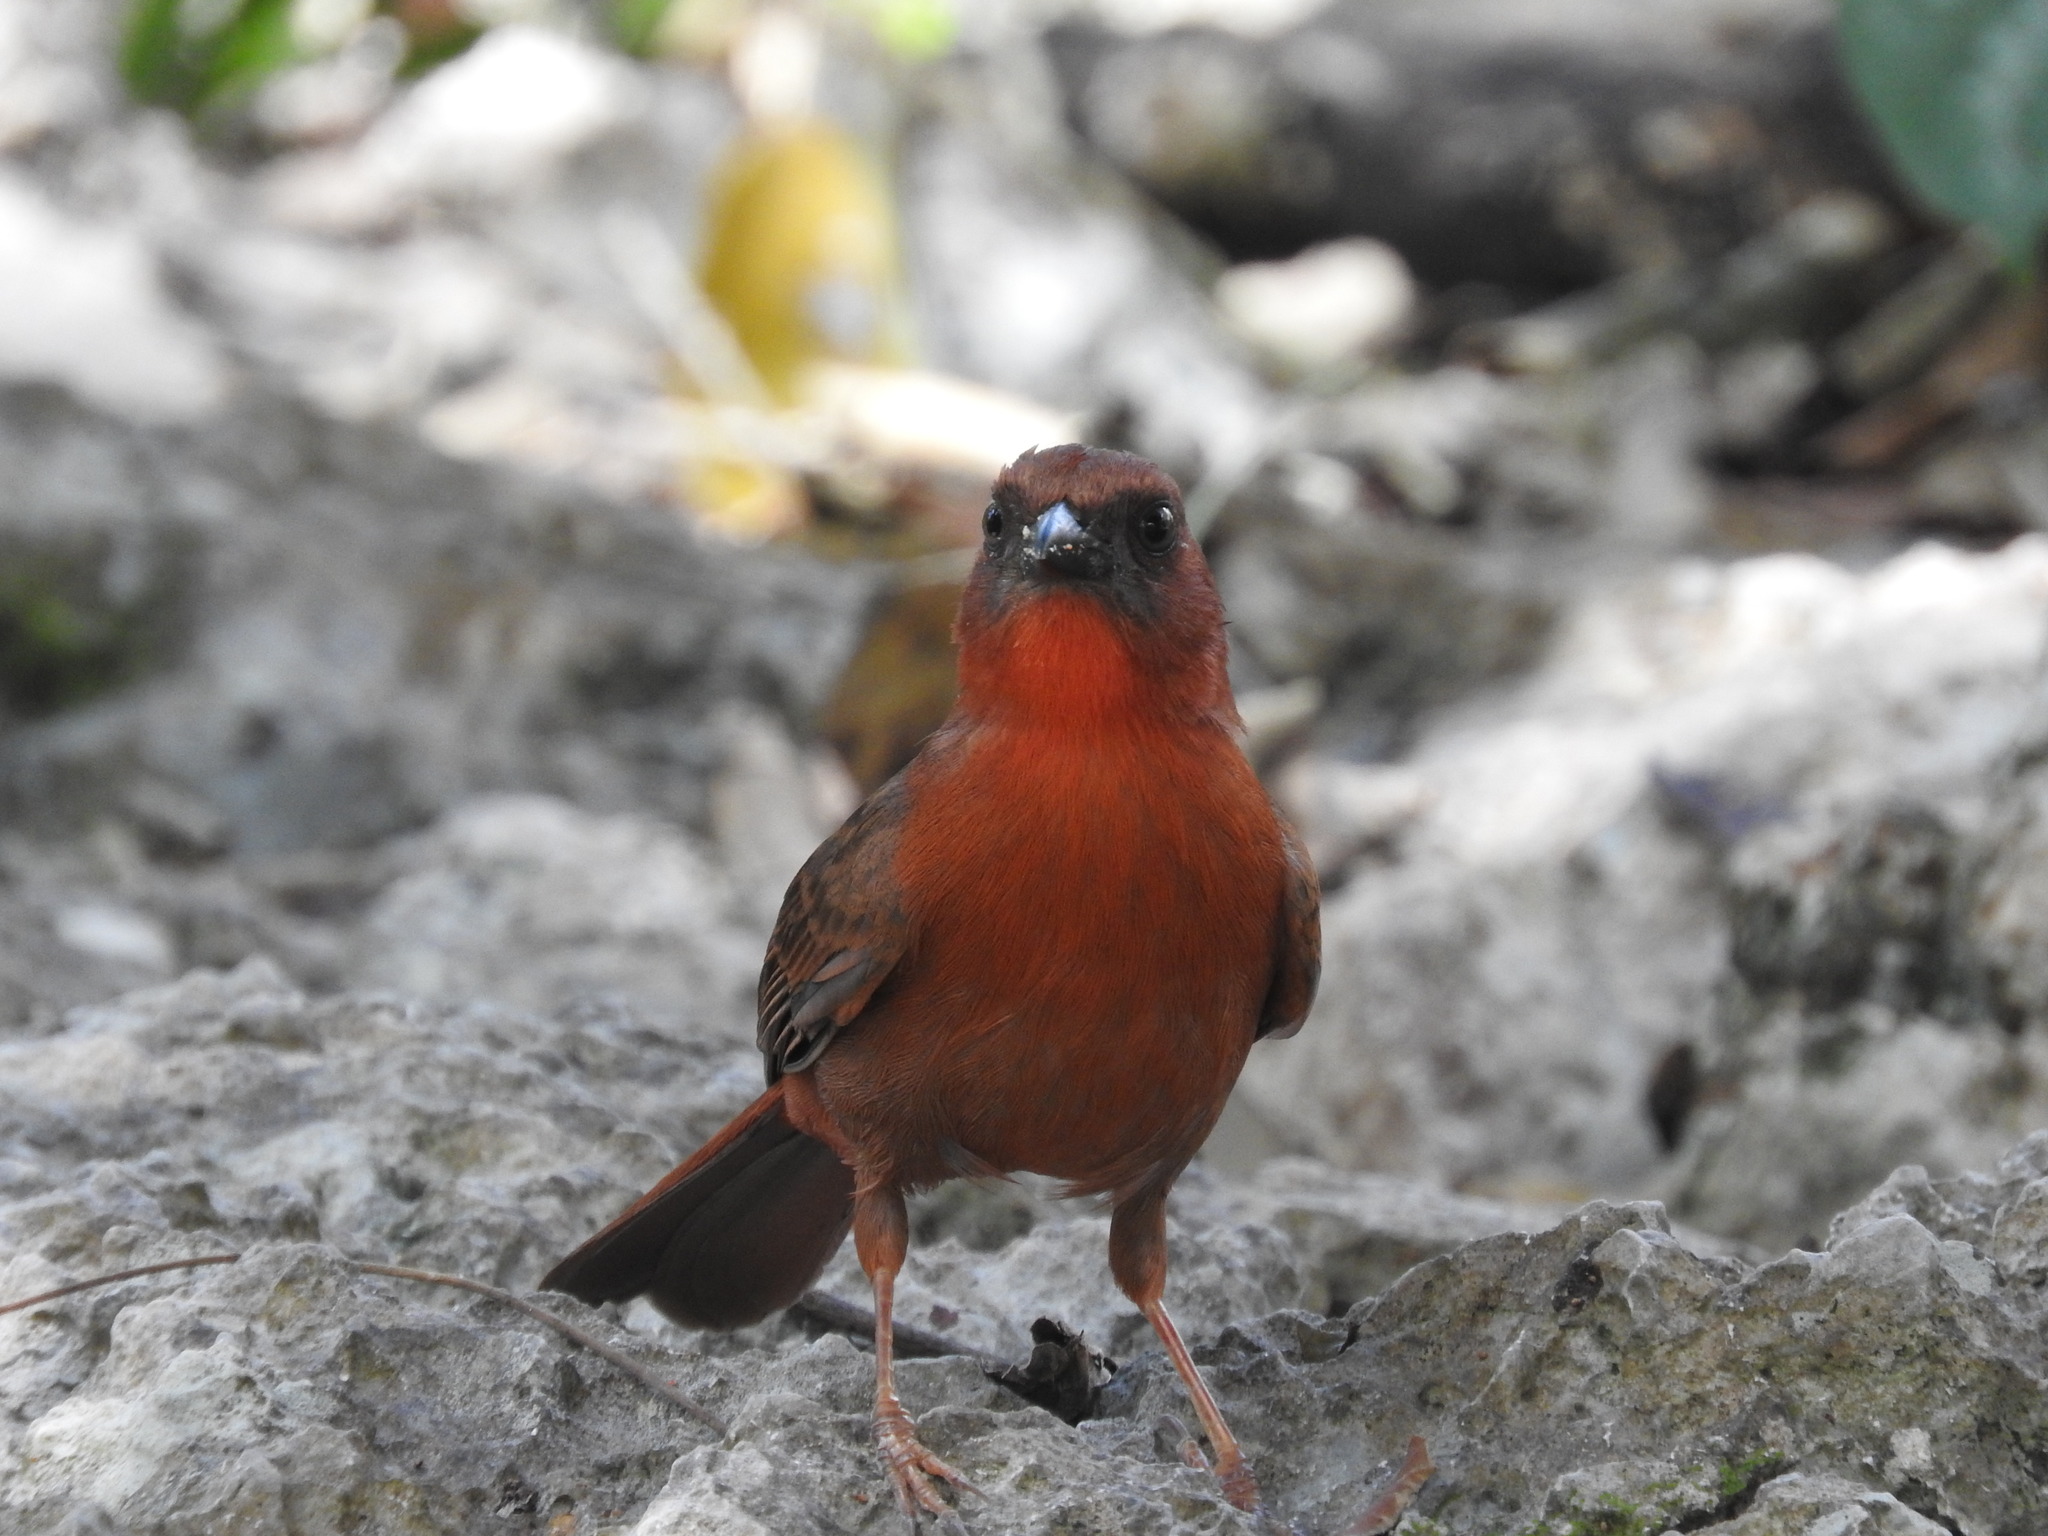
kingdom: Animalia
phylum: Chordata
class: Aves
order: Passeriformes
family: Cardinalidae
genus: Habia
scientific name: Habia fuscicauda
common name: Red-throated ant-tanager
